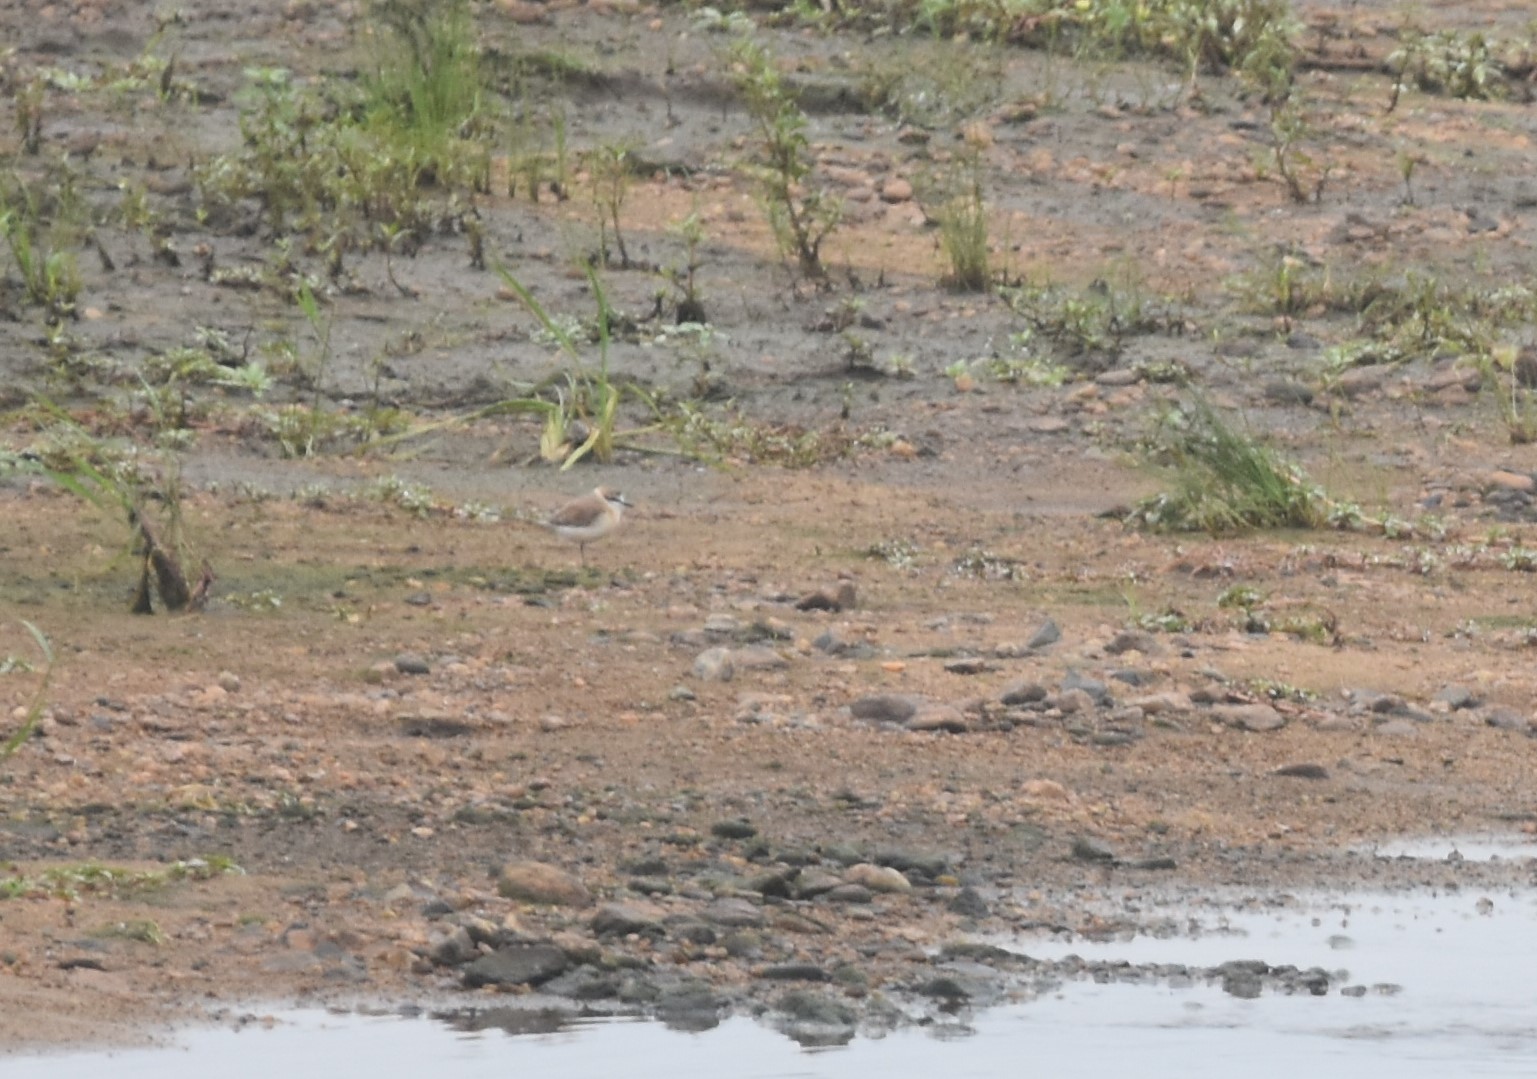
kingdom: Animalia
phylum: Chordata
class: Aves
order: Charadriiformes
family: Charadriidae
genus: Anarhynchus
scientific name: Anarhynchus
